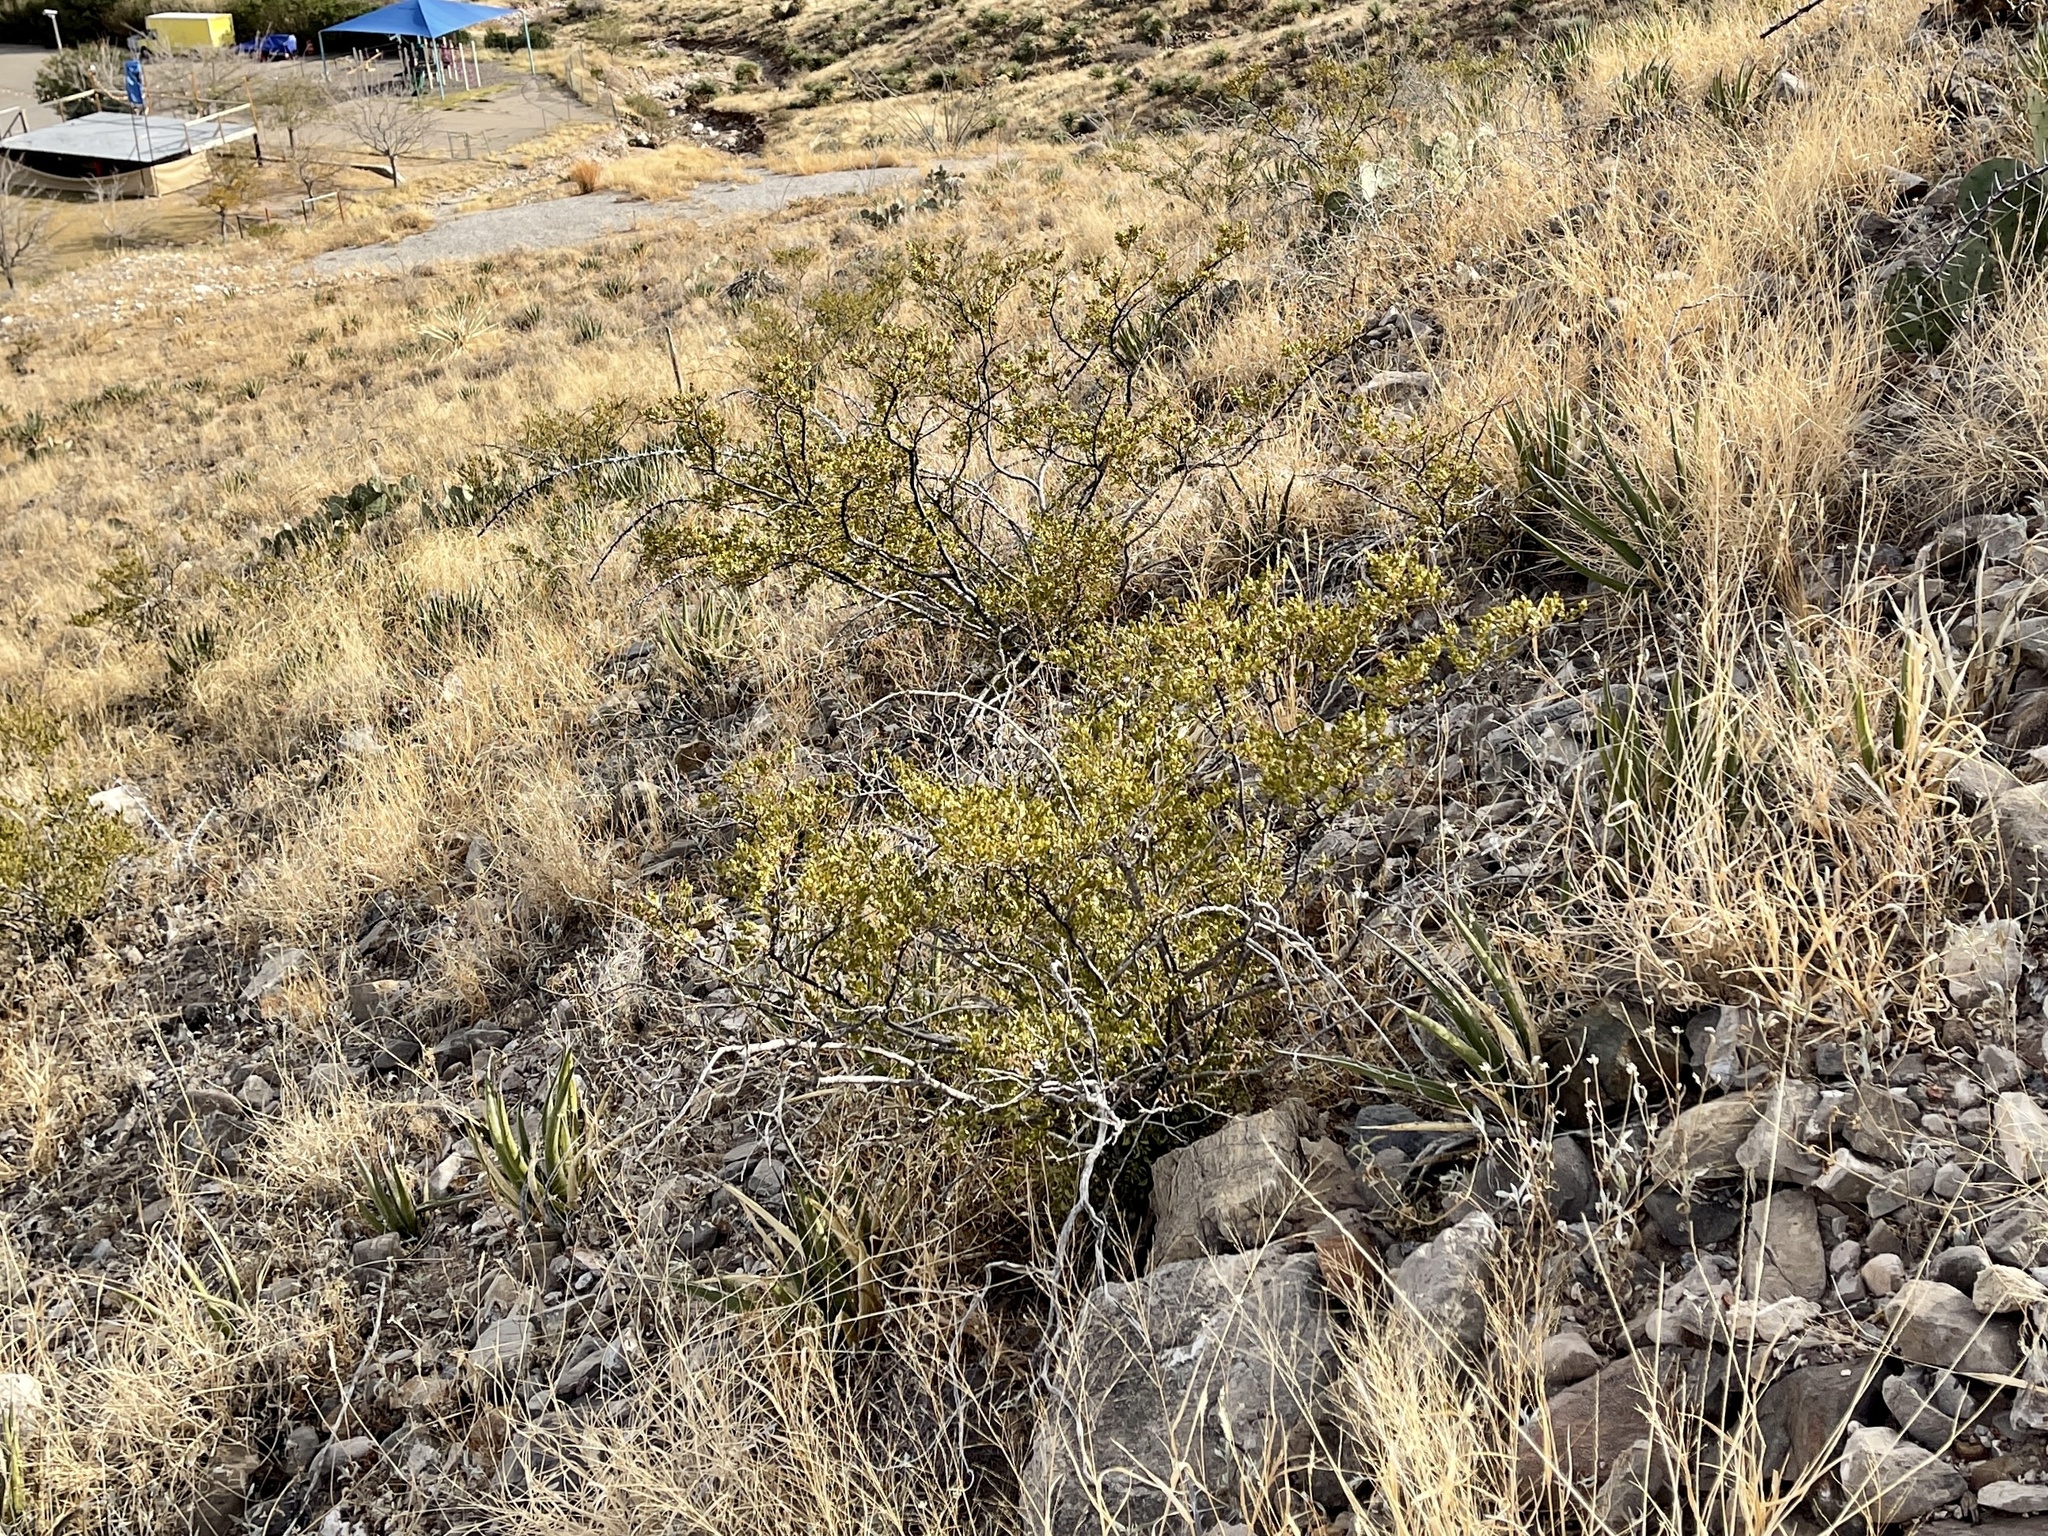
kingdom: Plantae
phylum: Tracheophyta
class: Magnoliopsida
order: Zygophyllales
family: Zygophyllaceae
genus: Larrea
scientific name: Larrea tridentata
